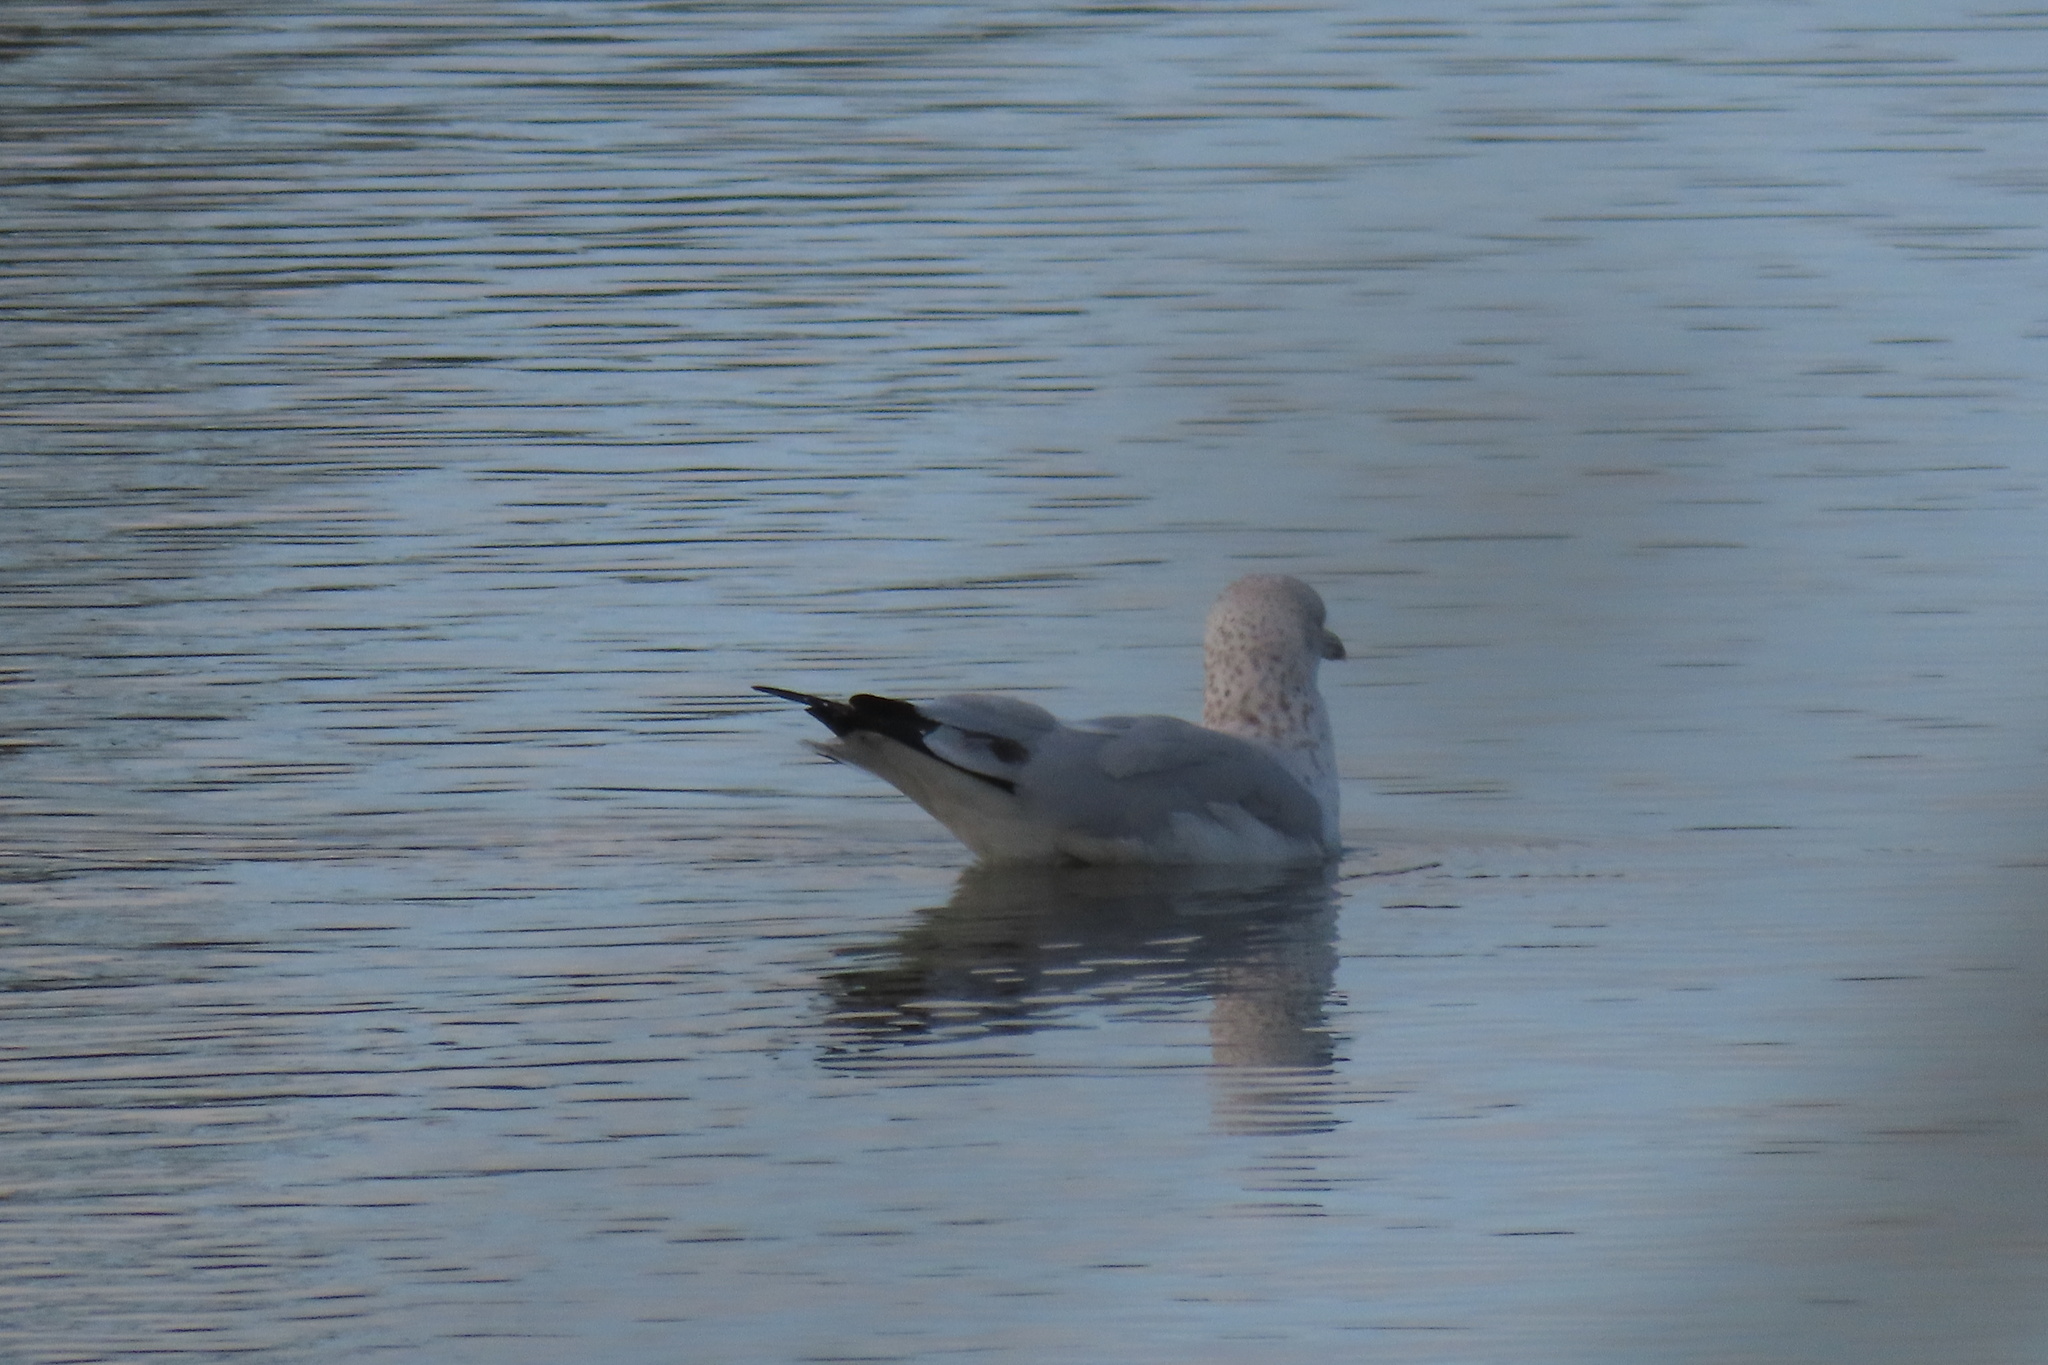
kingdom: Animalia
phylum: Chordata
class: Aves
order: Charadriiformes
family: Laridae
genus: Larus
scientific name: Larus delawarensis
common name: Ring-billed gull
